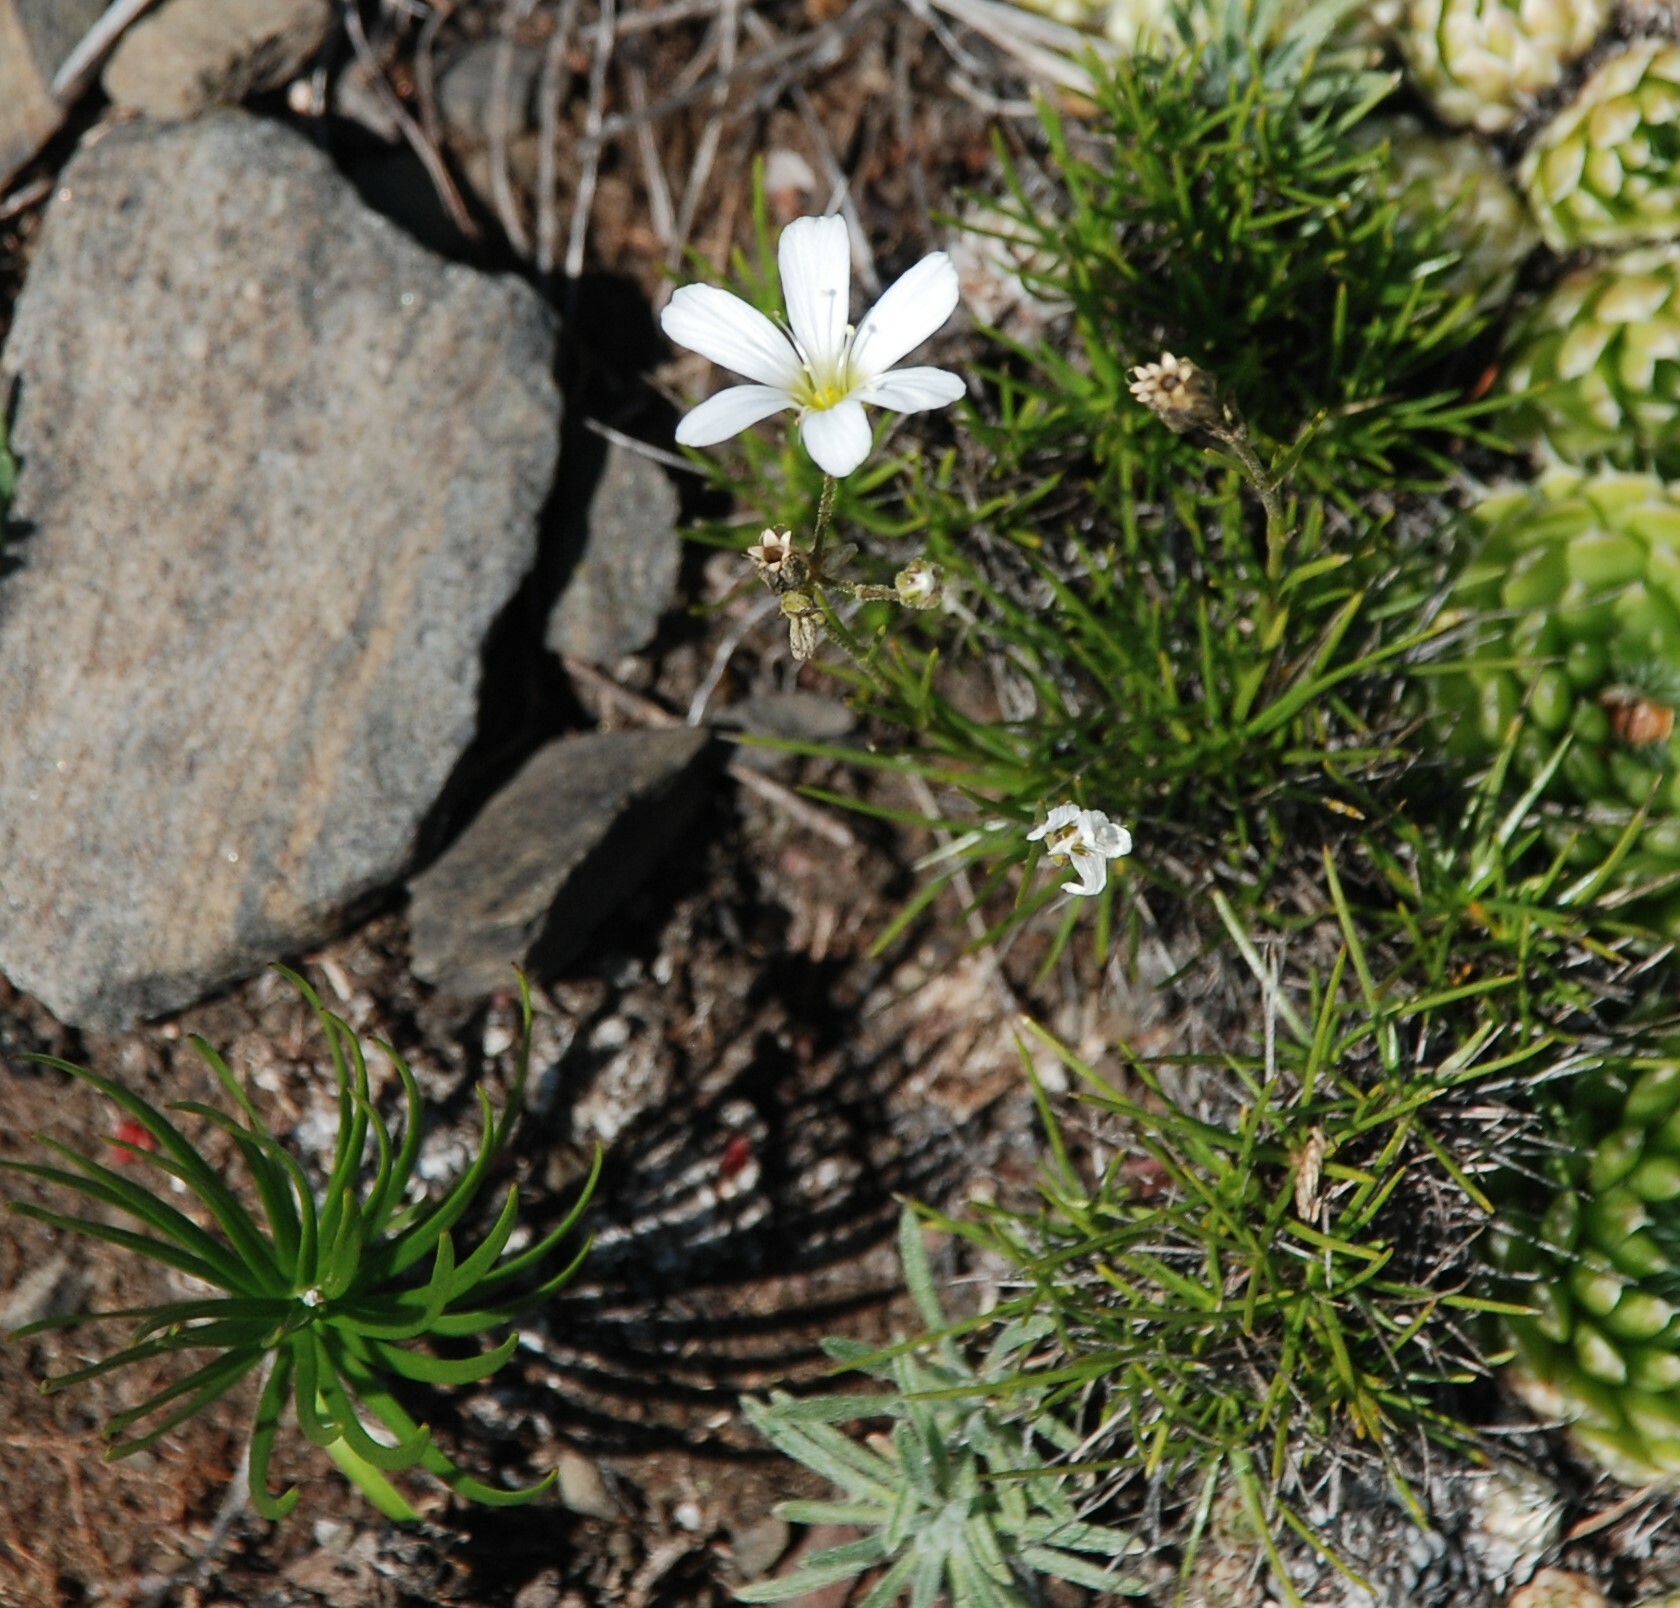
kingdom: Plantae
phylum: Tracheophyta
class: Magnoliopsida
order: Caryophyllales
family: Caryophyllaceae
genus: Eremogone
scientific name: Eremogone meyeri
